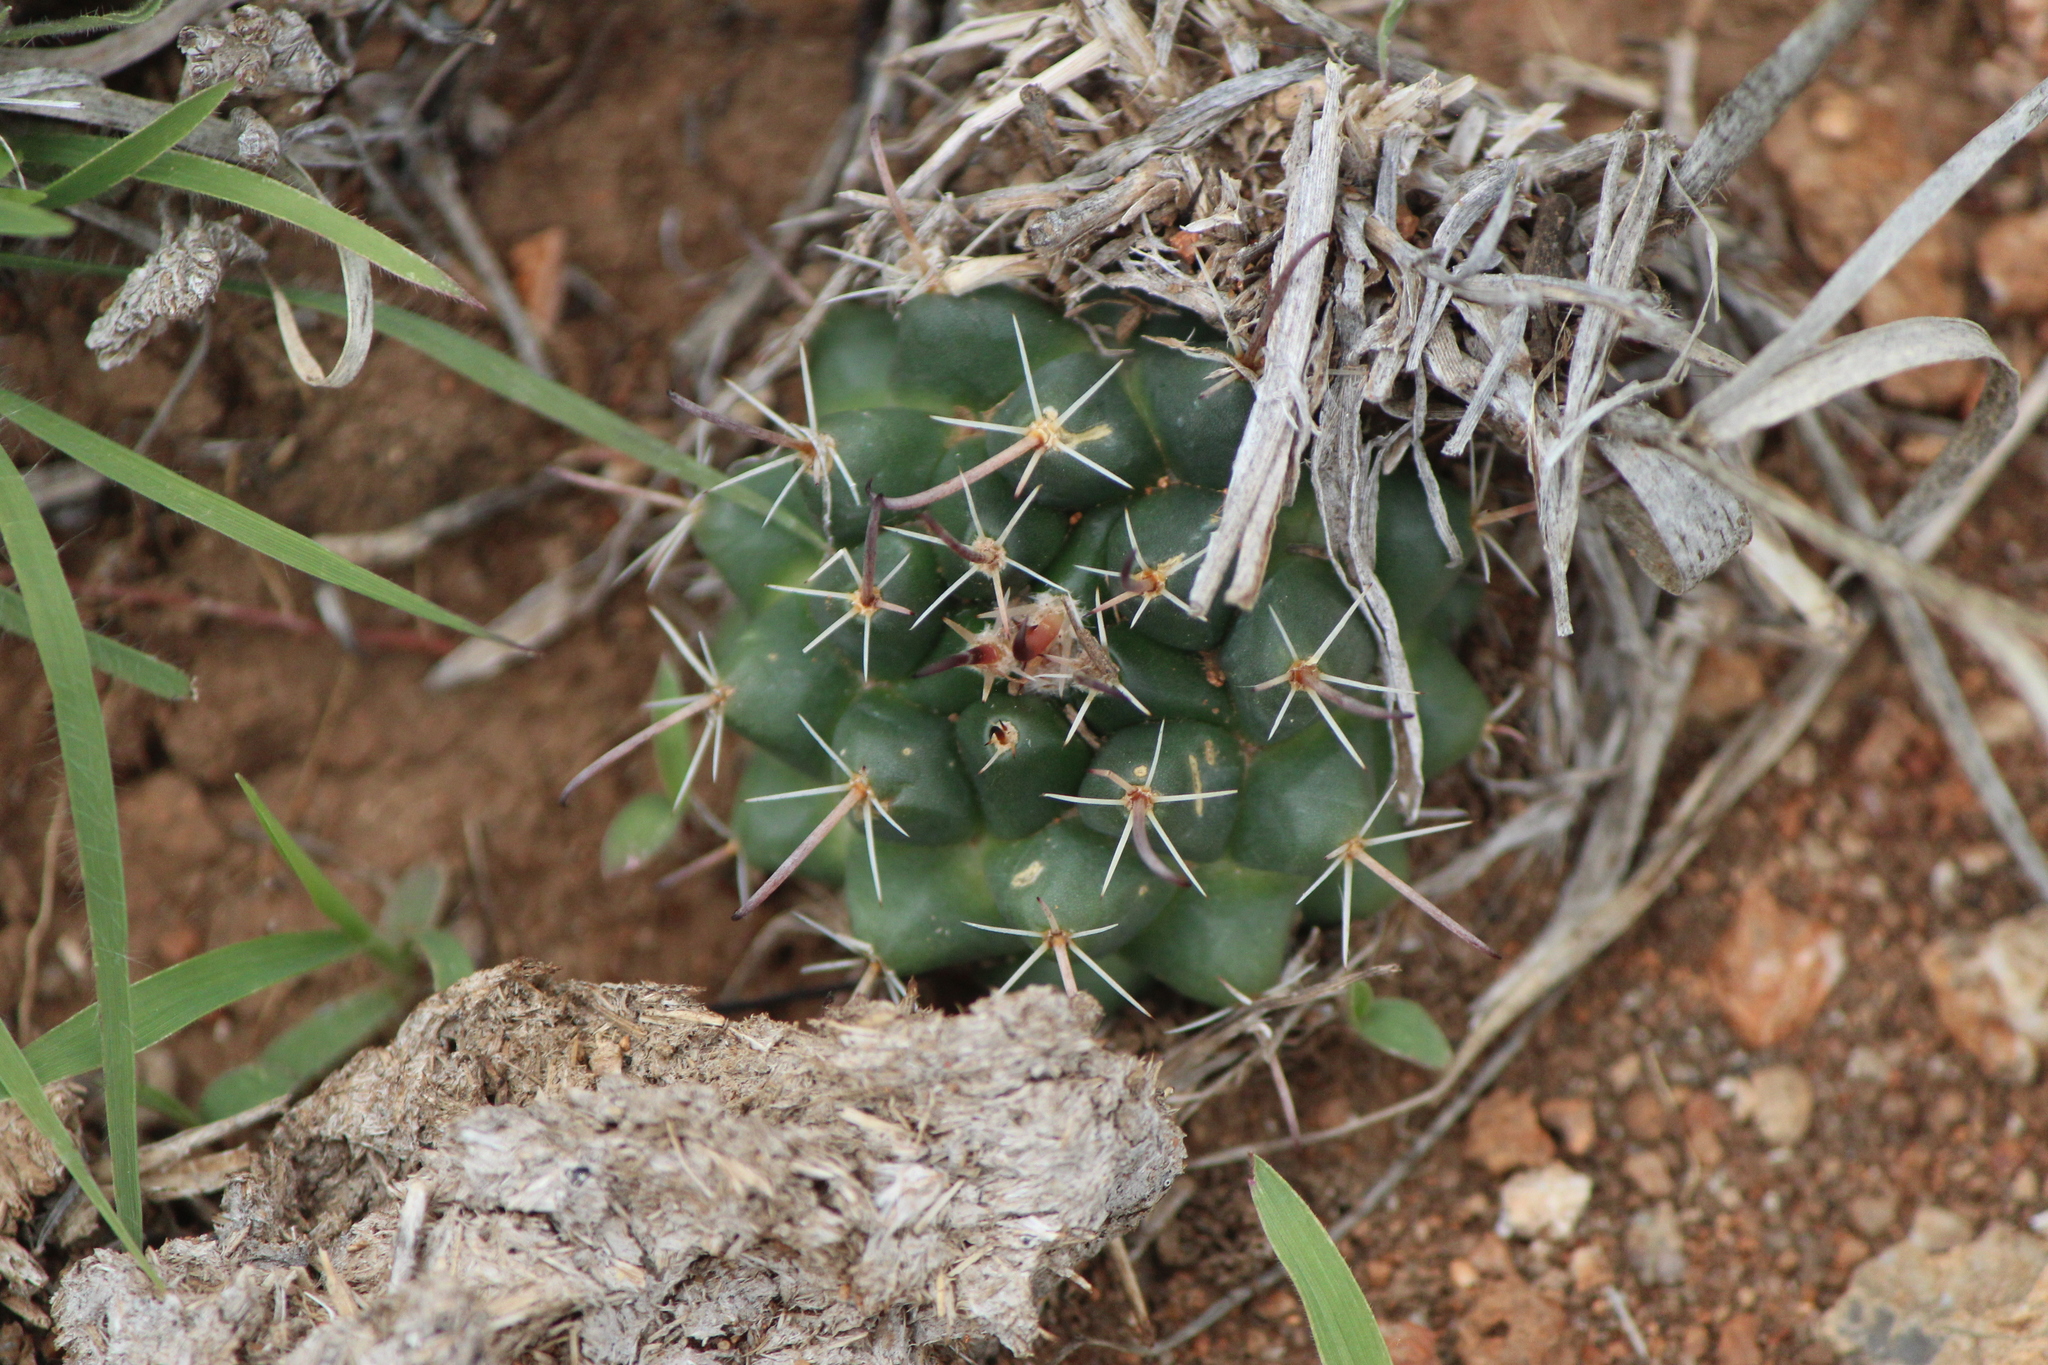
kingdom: Plantae
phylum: Tracheophyta
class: Magnoliopsida
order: Caryophyllales
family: Cactaceae
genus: Mammillaria
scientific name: Mammillaria uncinata
